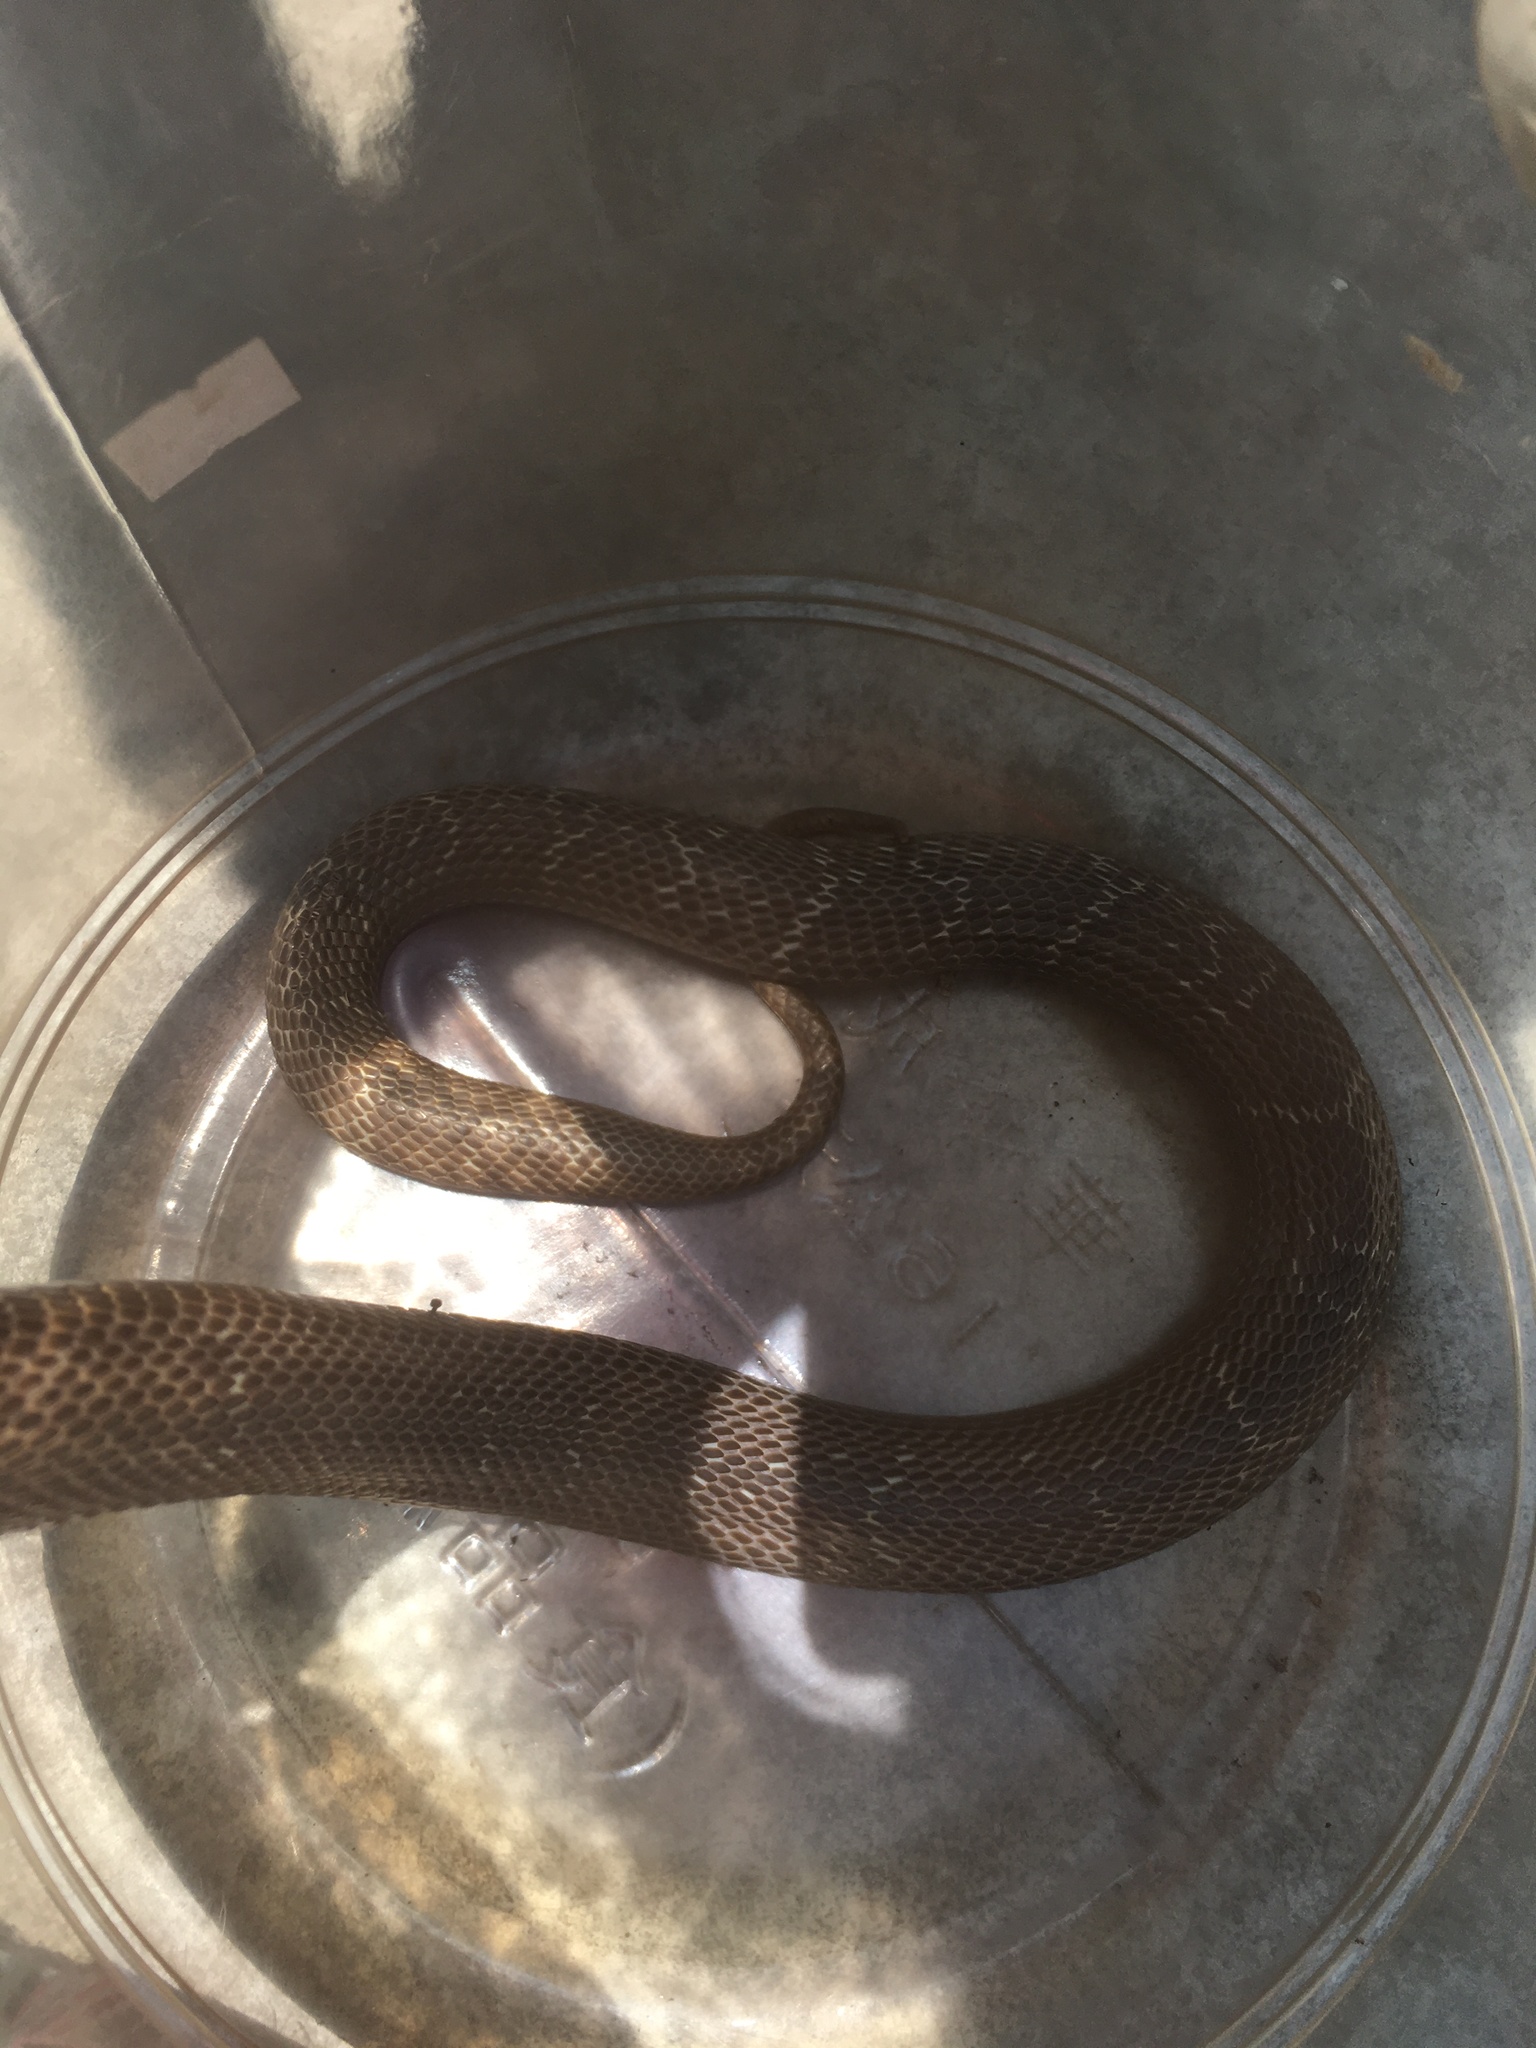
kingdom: Animalia
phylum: Chordata
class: Squamata
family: Elapidae
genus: Naja
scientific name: Naja atra
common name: Chinese cobra
